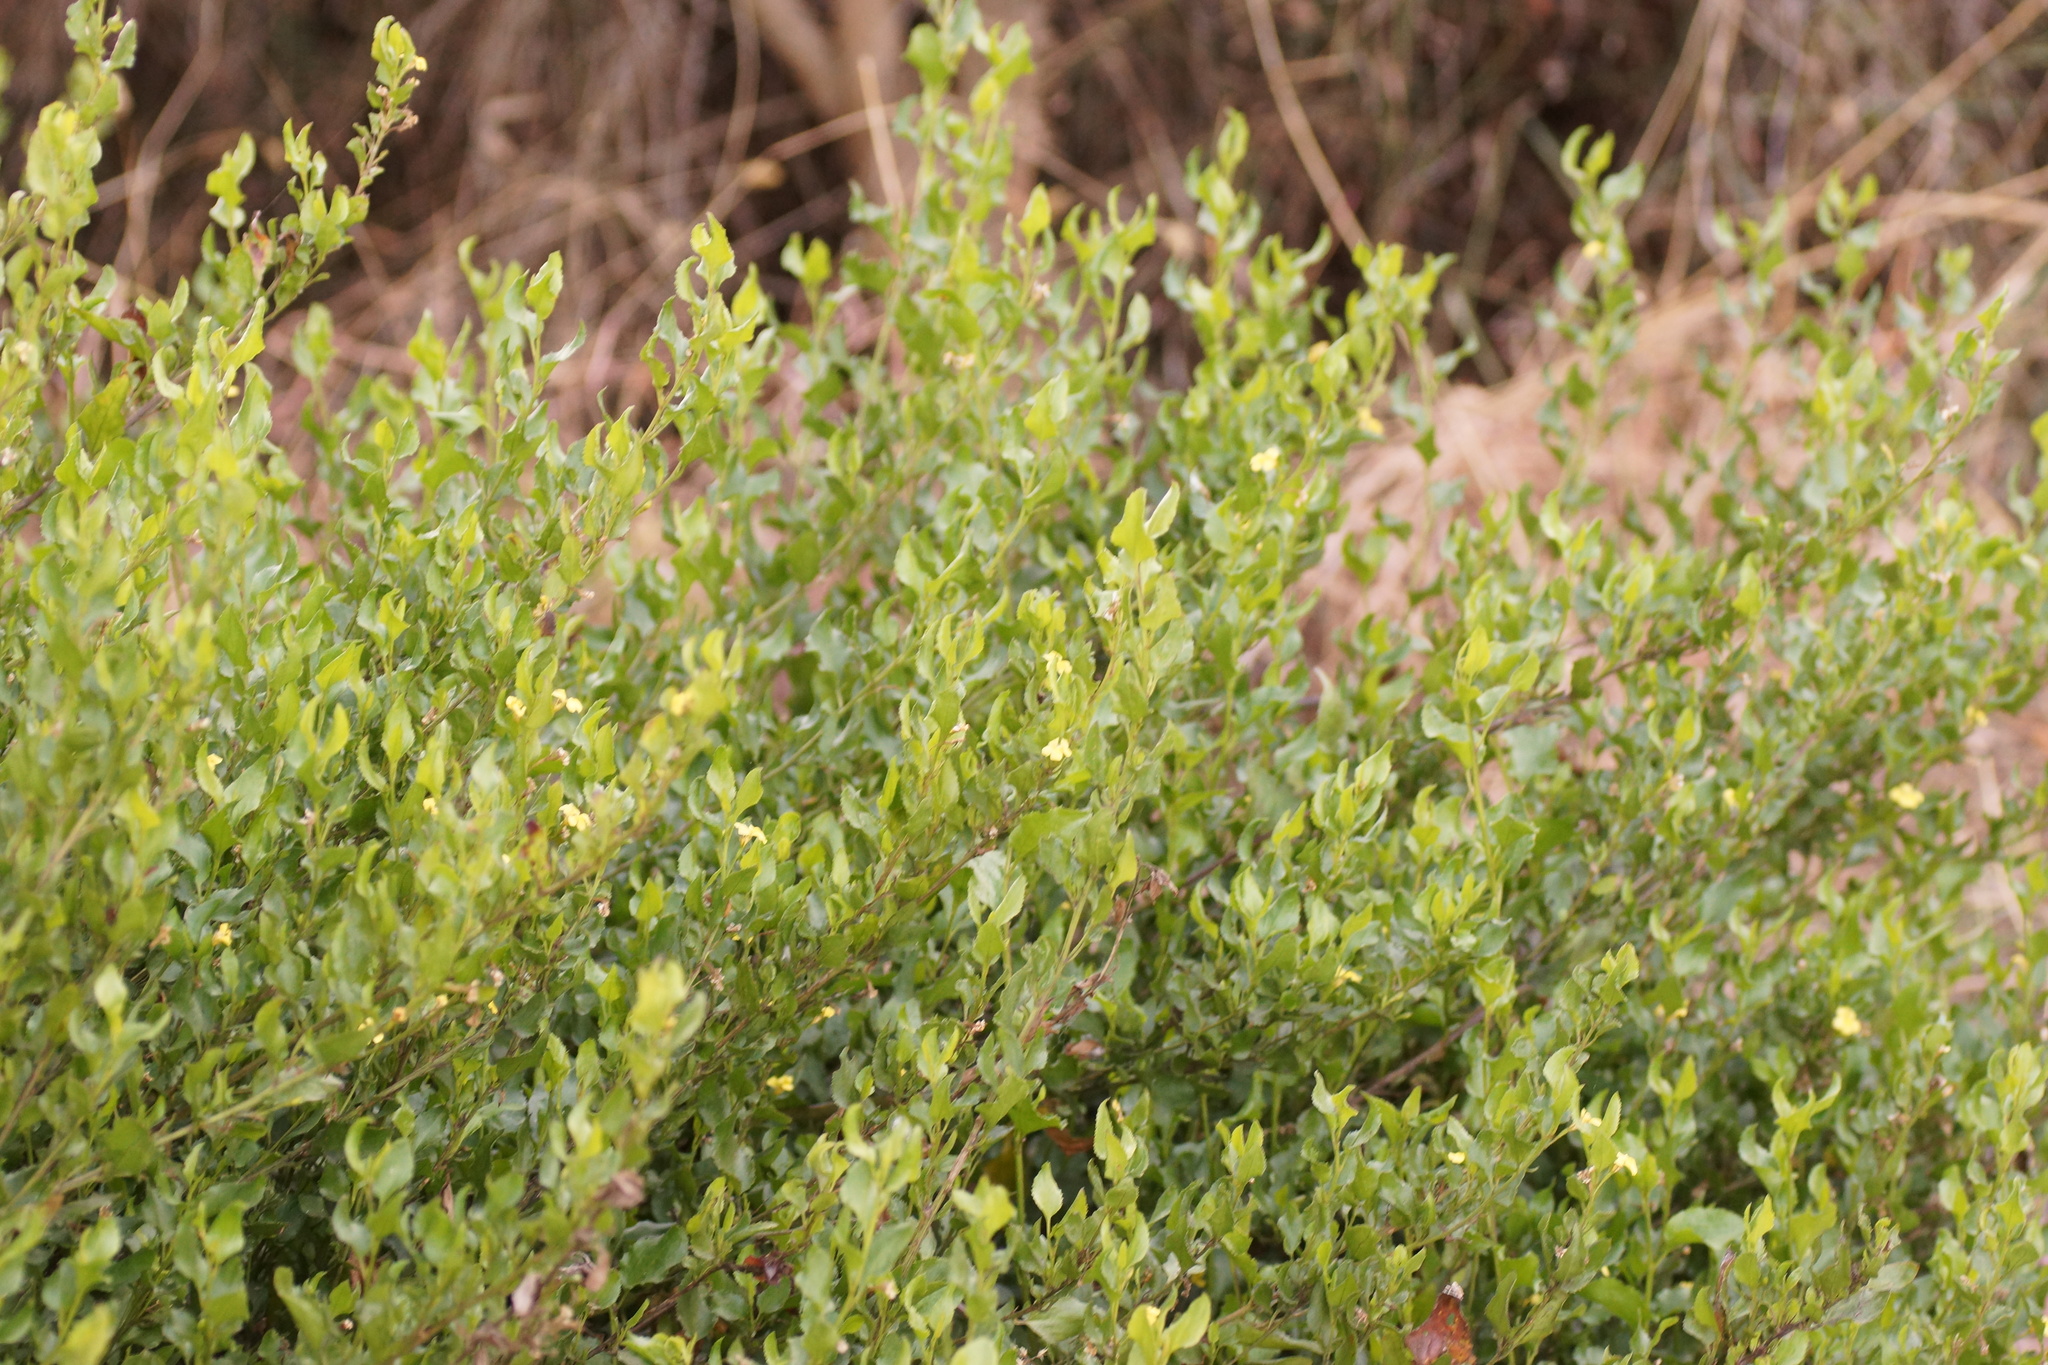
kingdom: Plantae
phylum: Tracheophyta
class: Magnoliopsida
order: Asterales
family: Goodeniaceae
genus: Goodenia
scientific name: Goodenia ovata
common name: Hop goodenia
